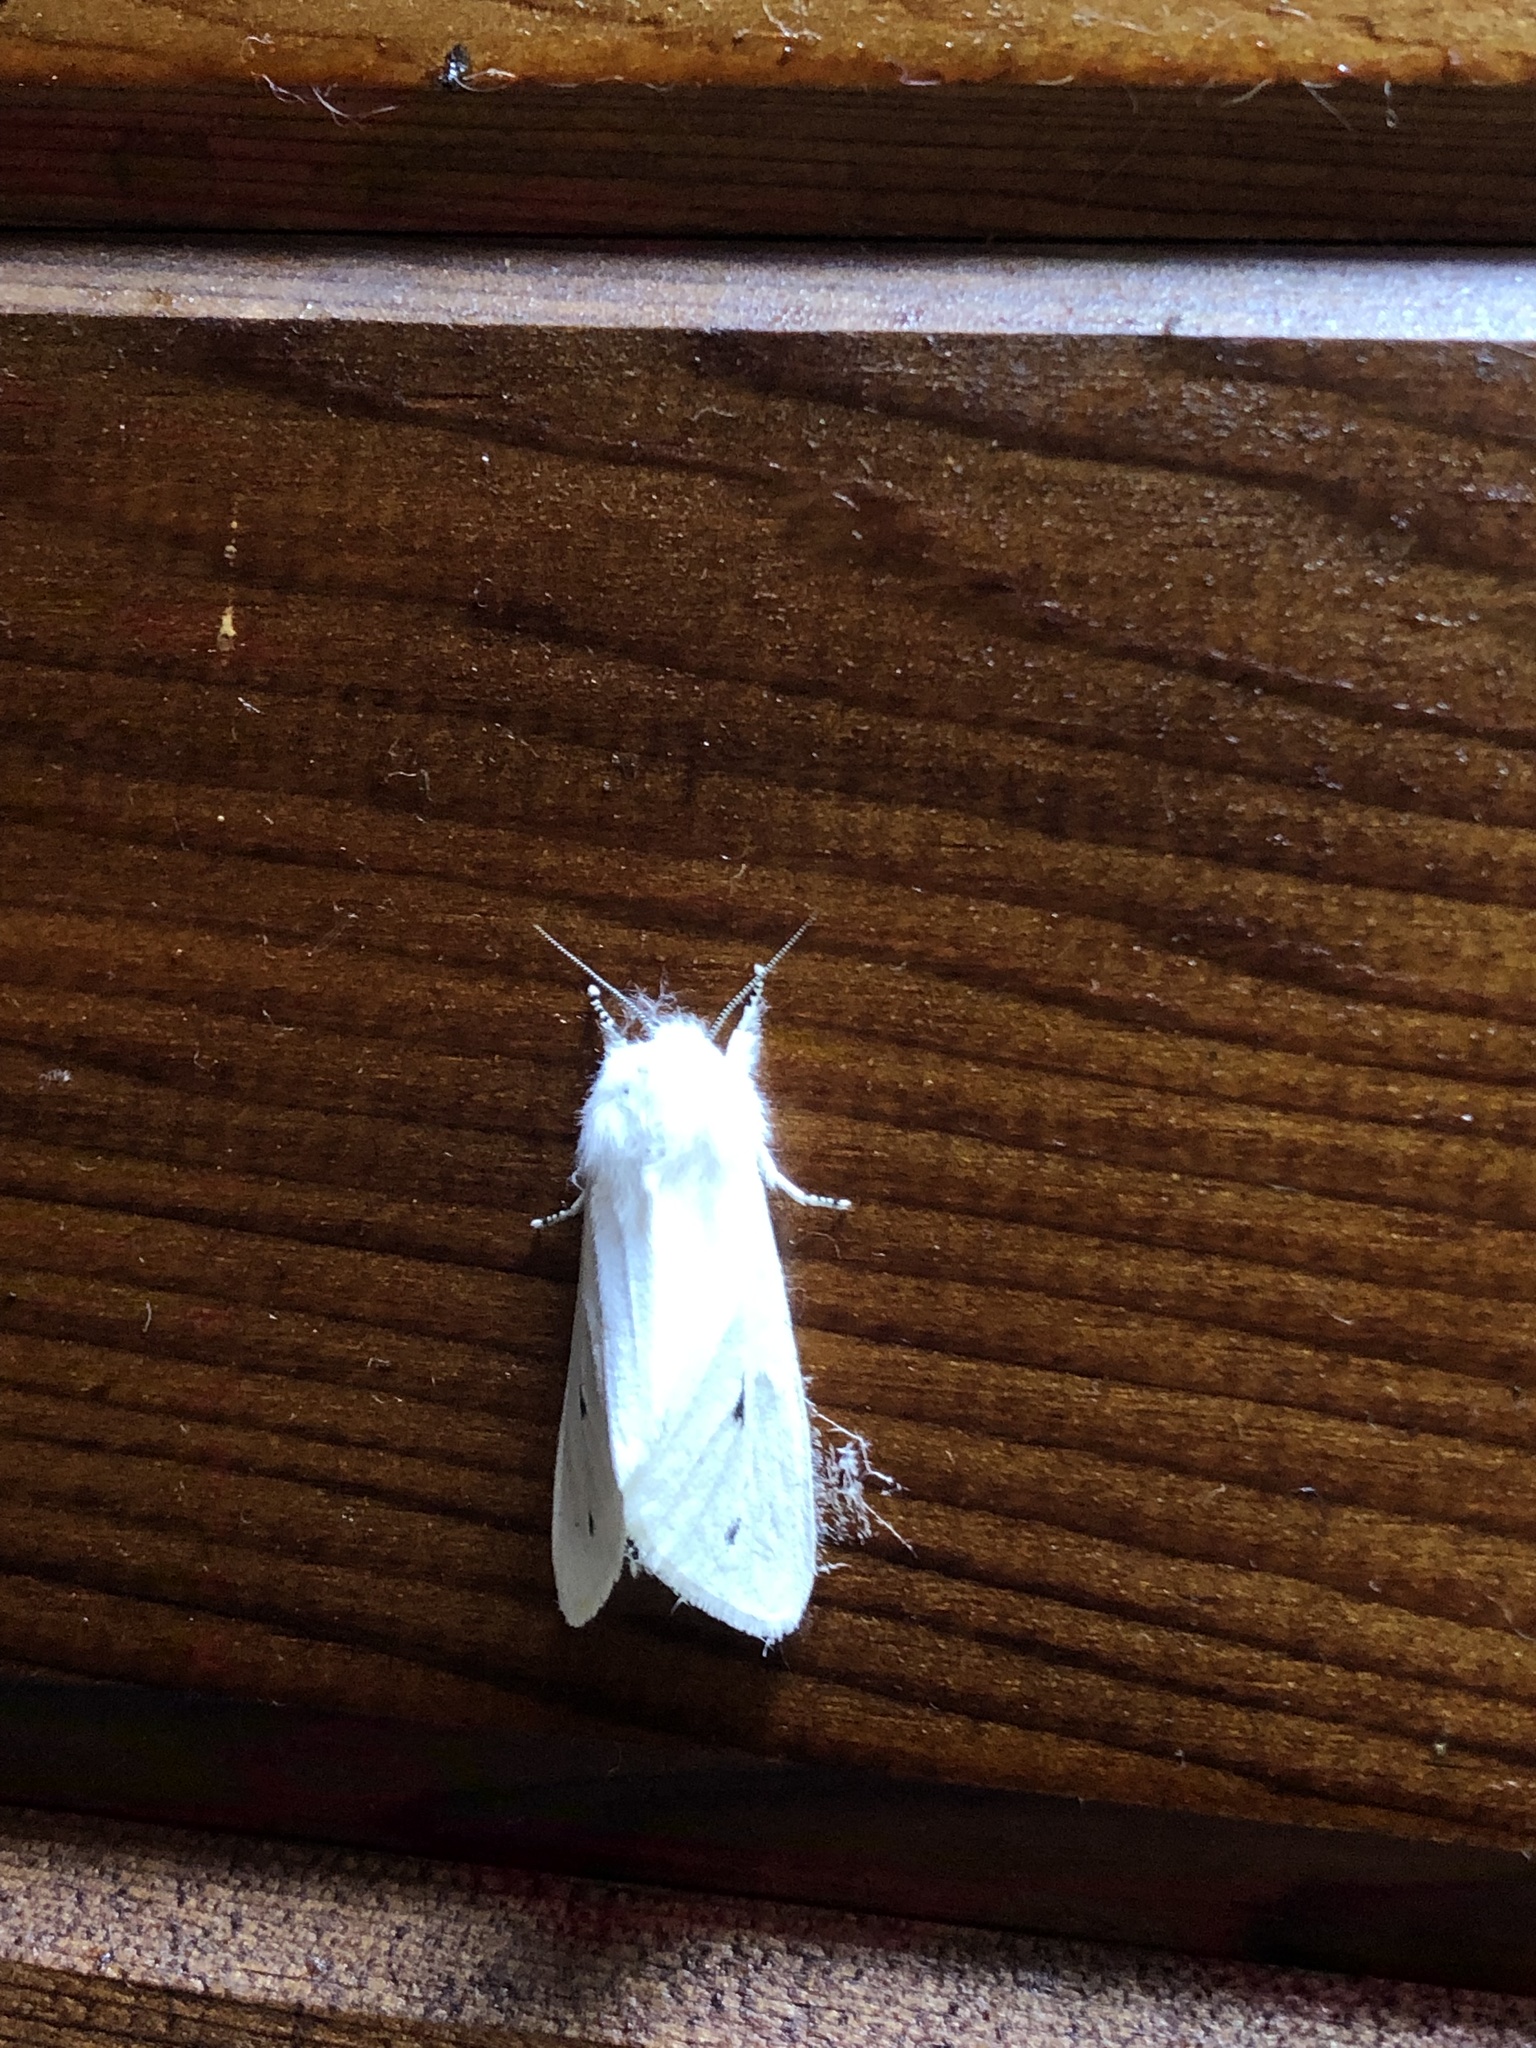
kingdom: Animalia
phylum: Arthropoda
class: Insecta
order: Lepidoptera
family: Erebidae
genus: Spilosoma
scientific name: Spilosoma virginica
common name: Virginia tiger moth
